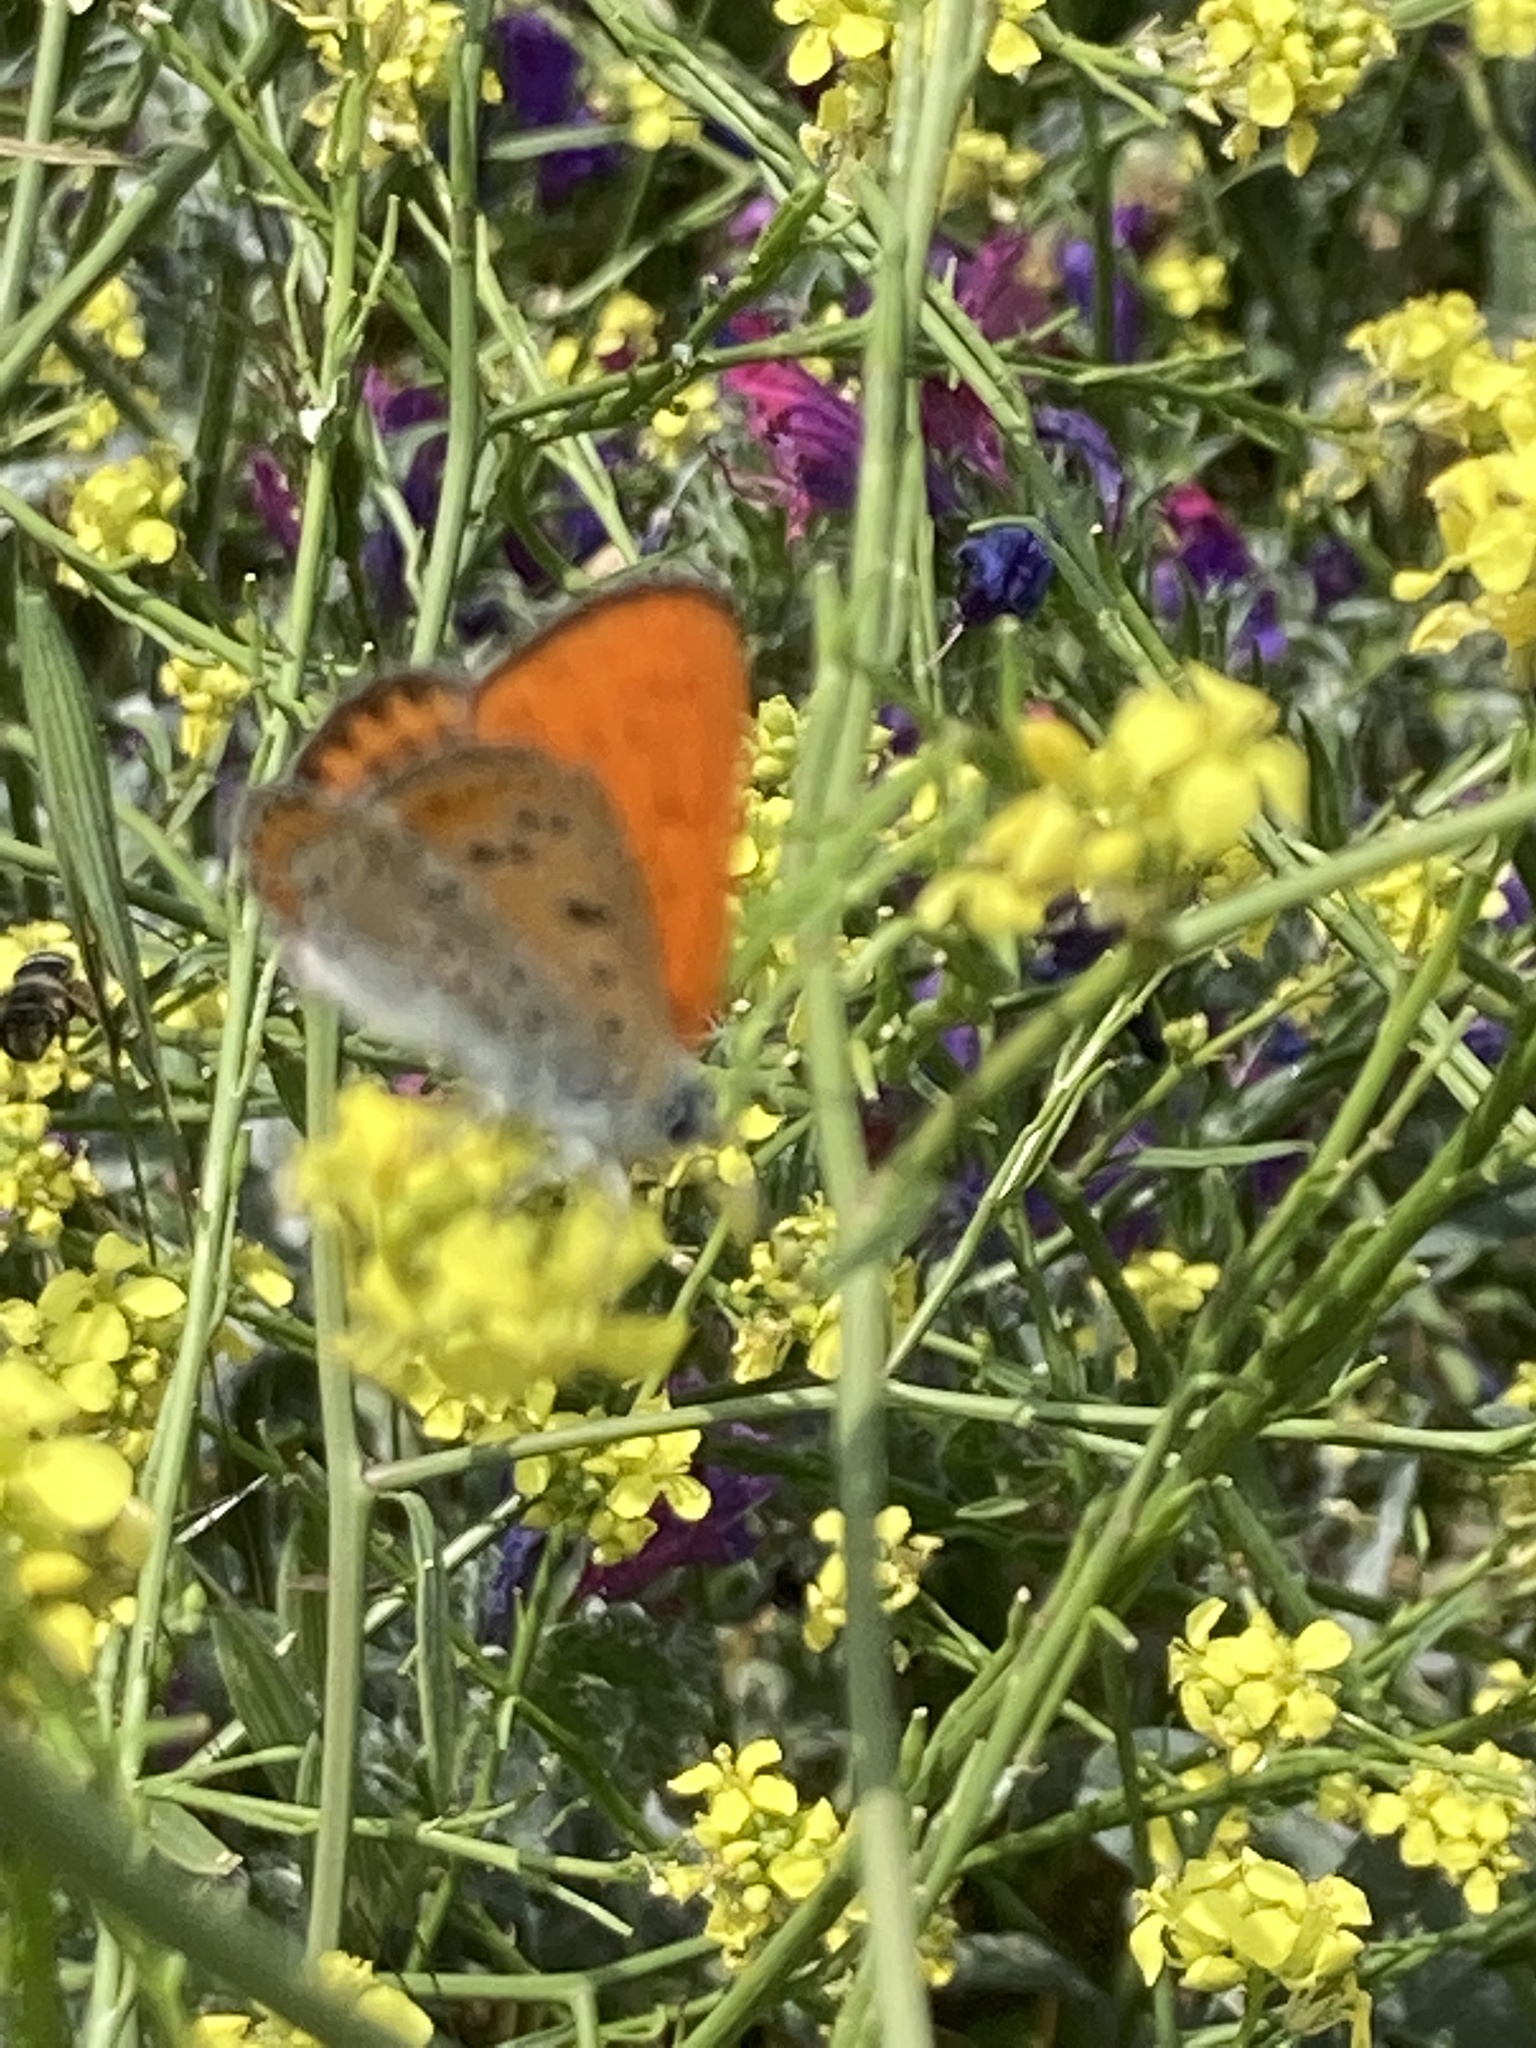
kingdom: Animalia
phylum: Arthropoda
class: Insecta
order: Lepidoptera
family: Lycaenidae
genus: Thersamonia
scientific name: Thersamonia thersamon
